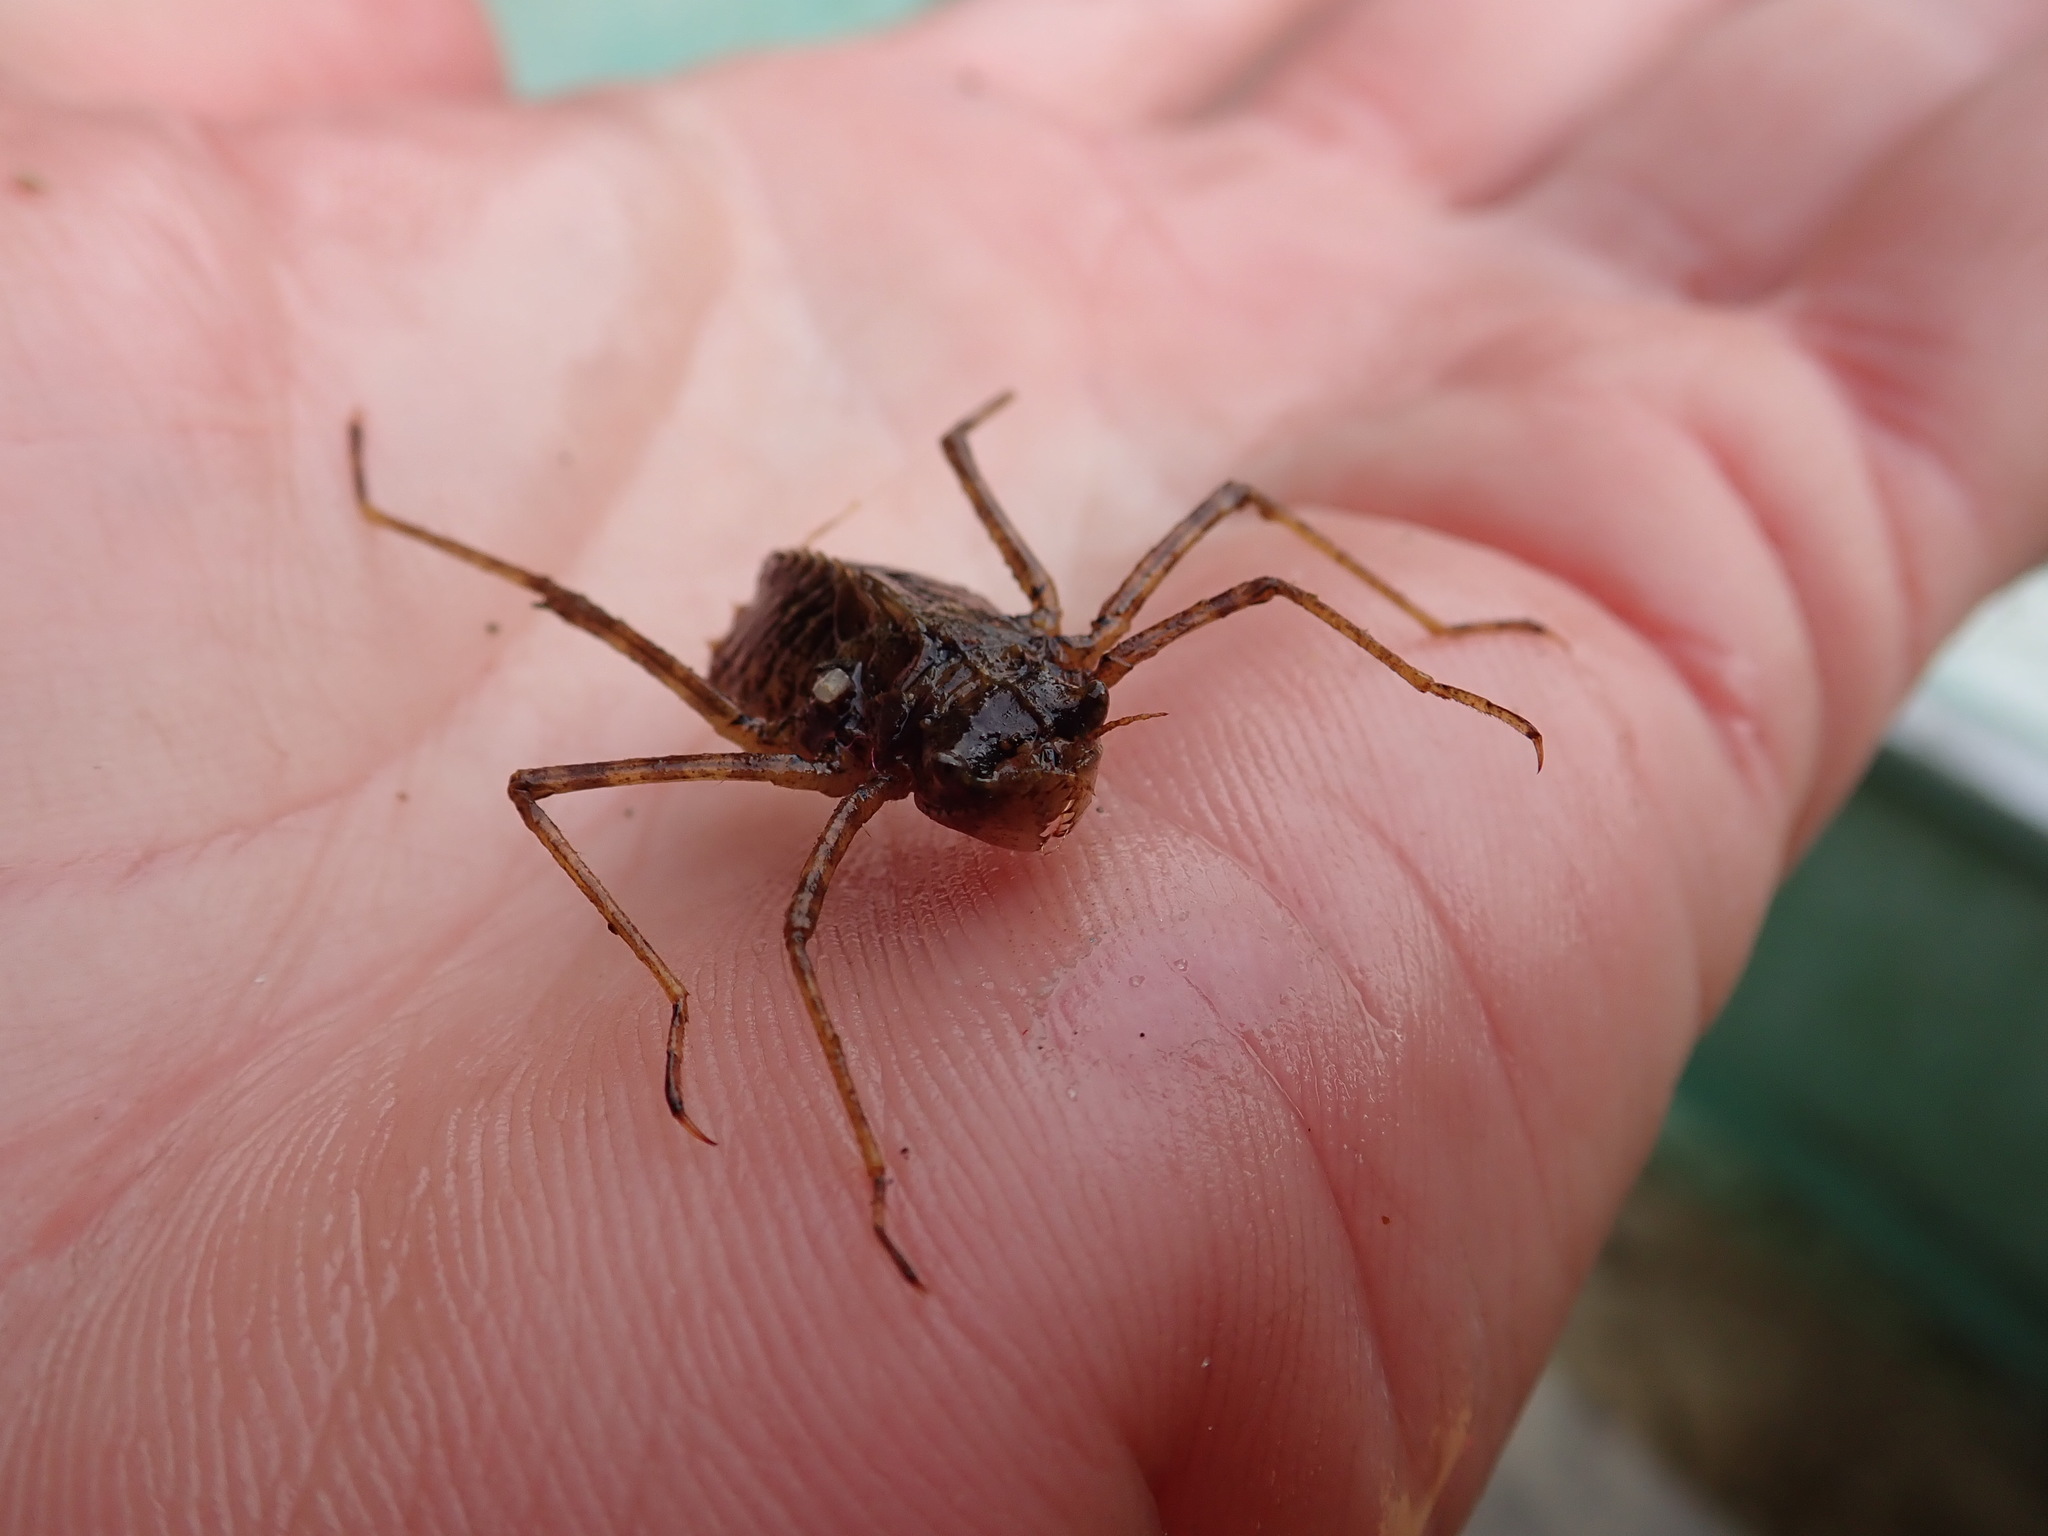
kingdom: Animalia
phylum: Arthropoda
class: Insecta
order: Odonata
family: Macromiidae
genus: Macromia
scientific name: Macromia illinoiensis
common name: Swift river cruiser
